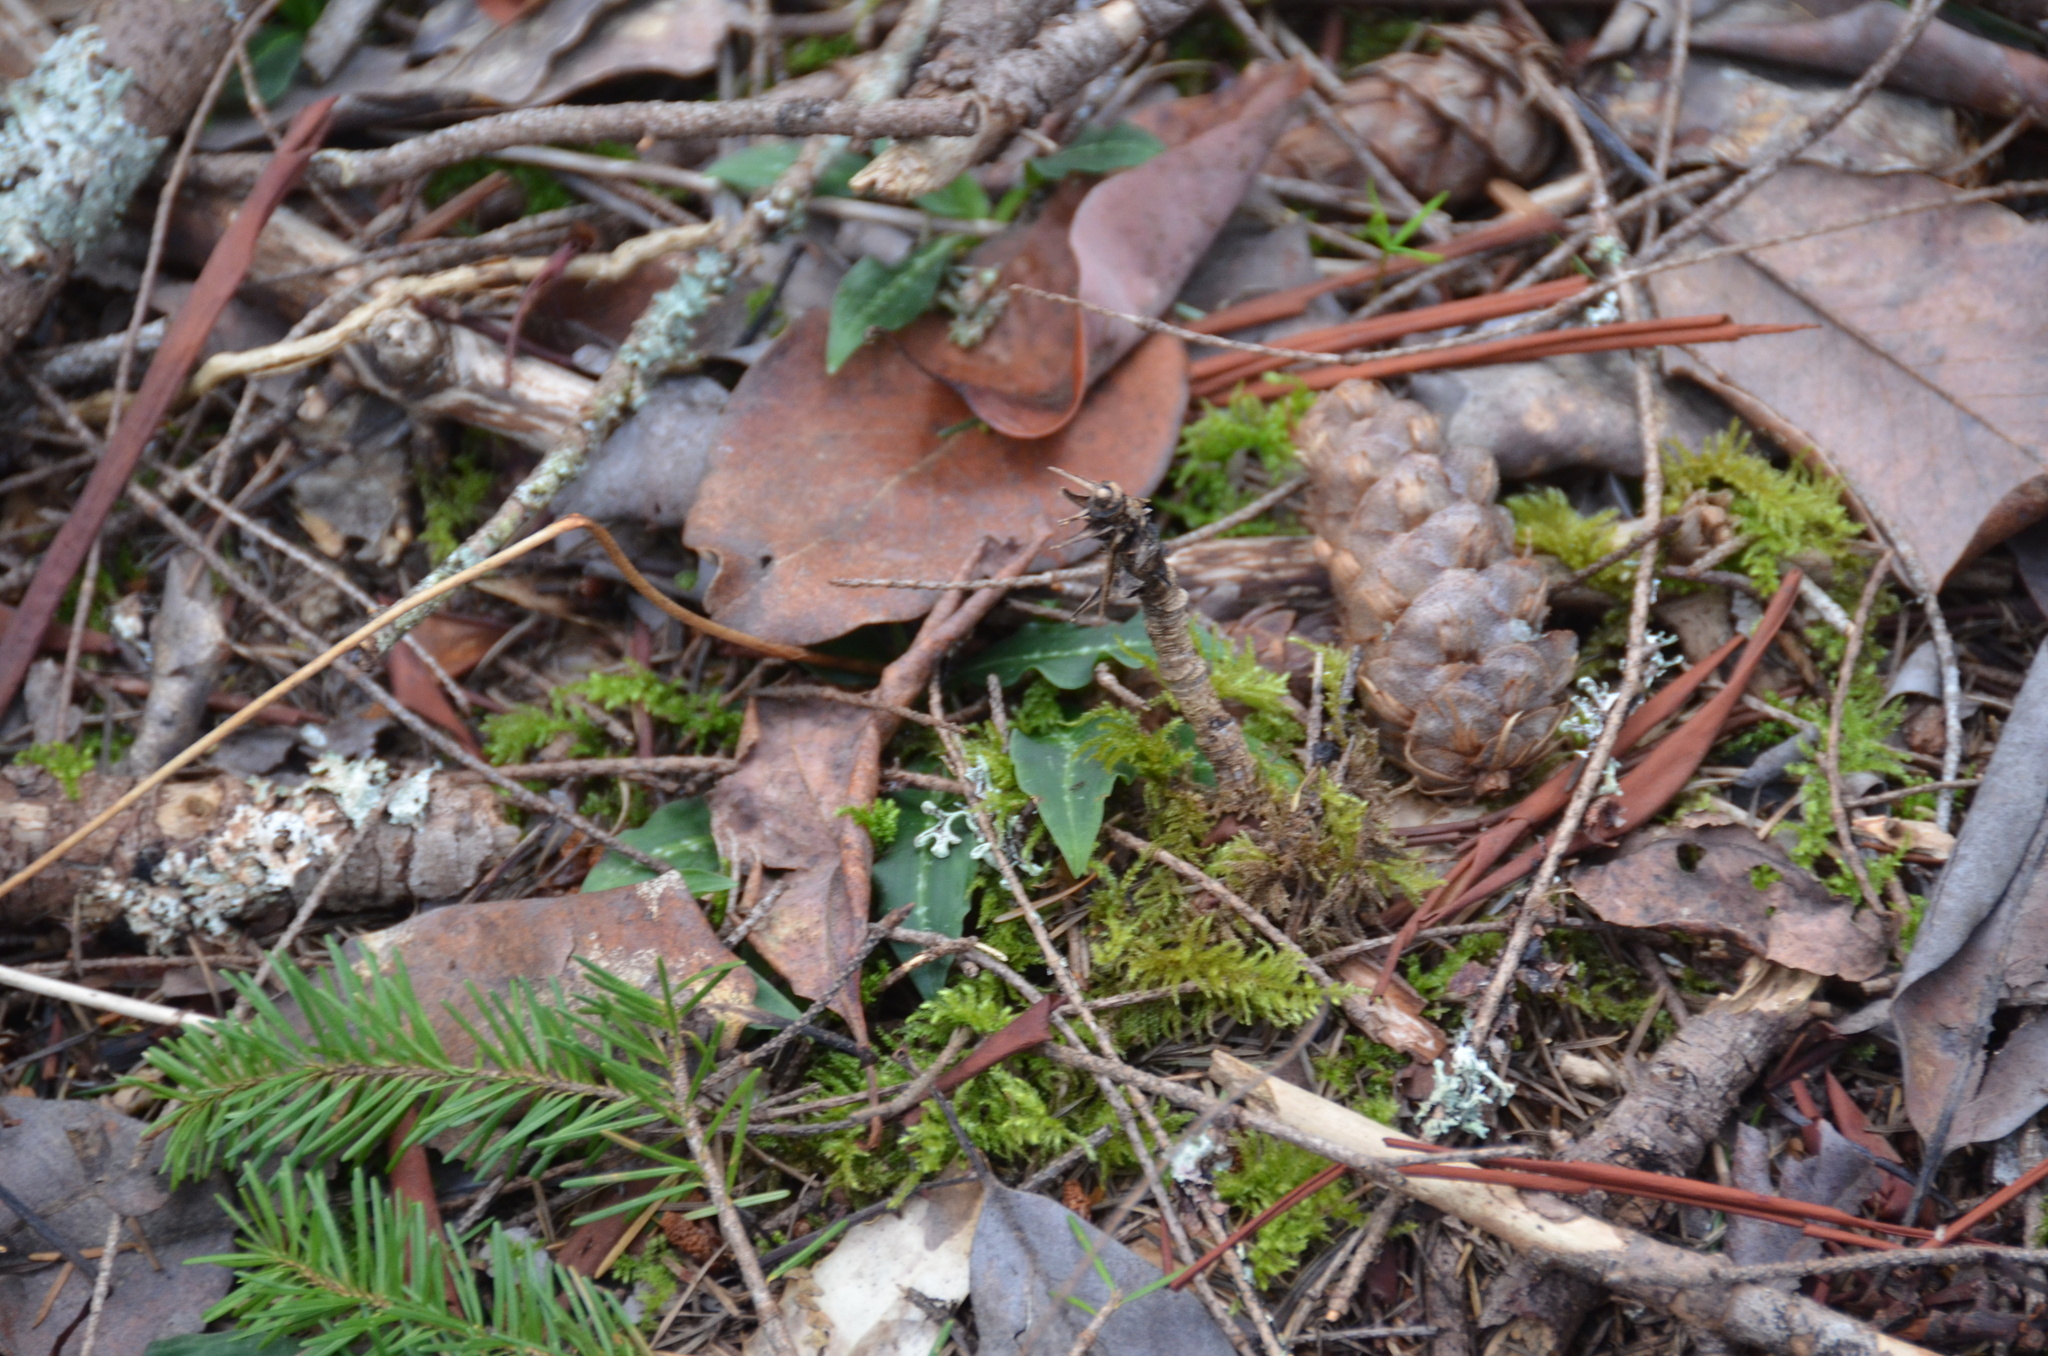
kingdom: Plantae
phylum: Tracheophyta
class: Liliopsida
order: Asparagales
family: Orchidaceae
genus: Goodyera
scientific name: Goodyera oblongifolia
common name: Giant rattlesnake-plantain
